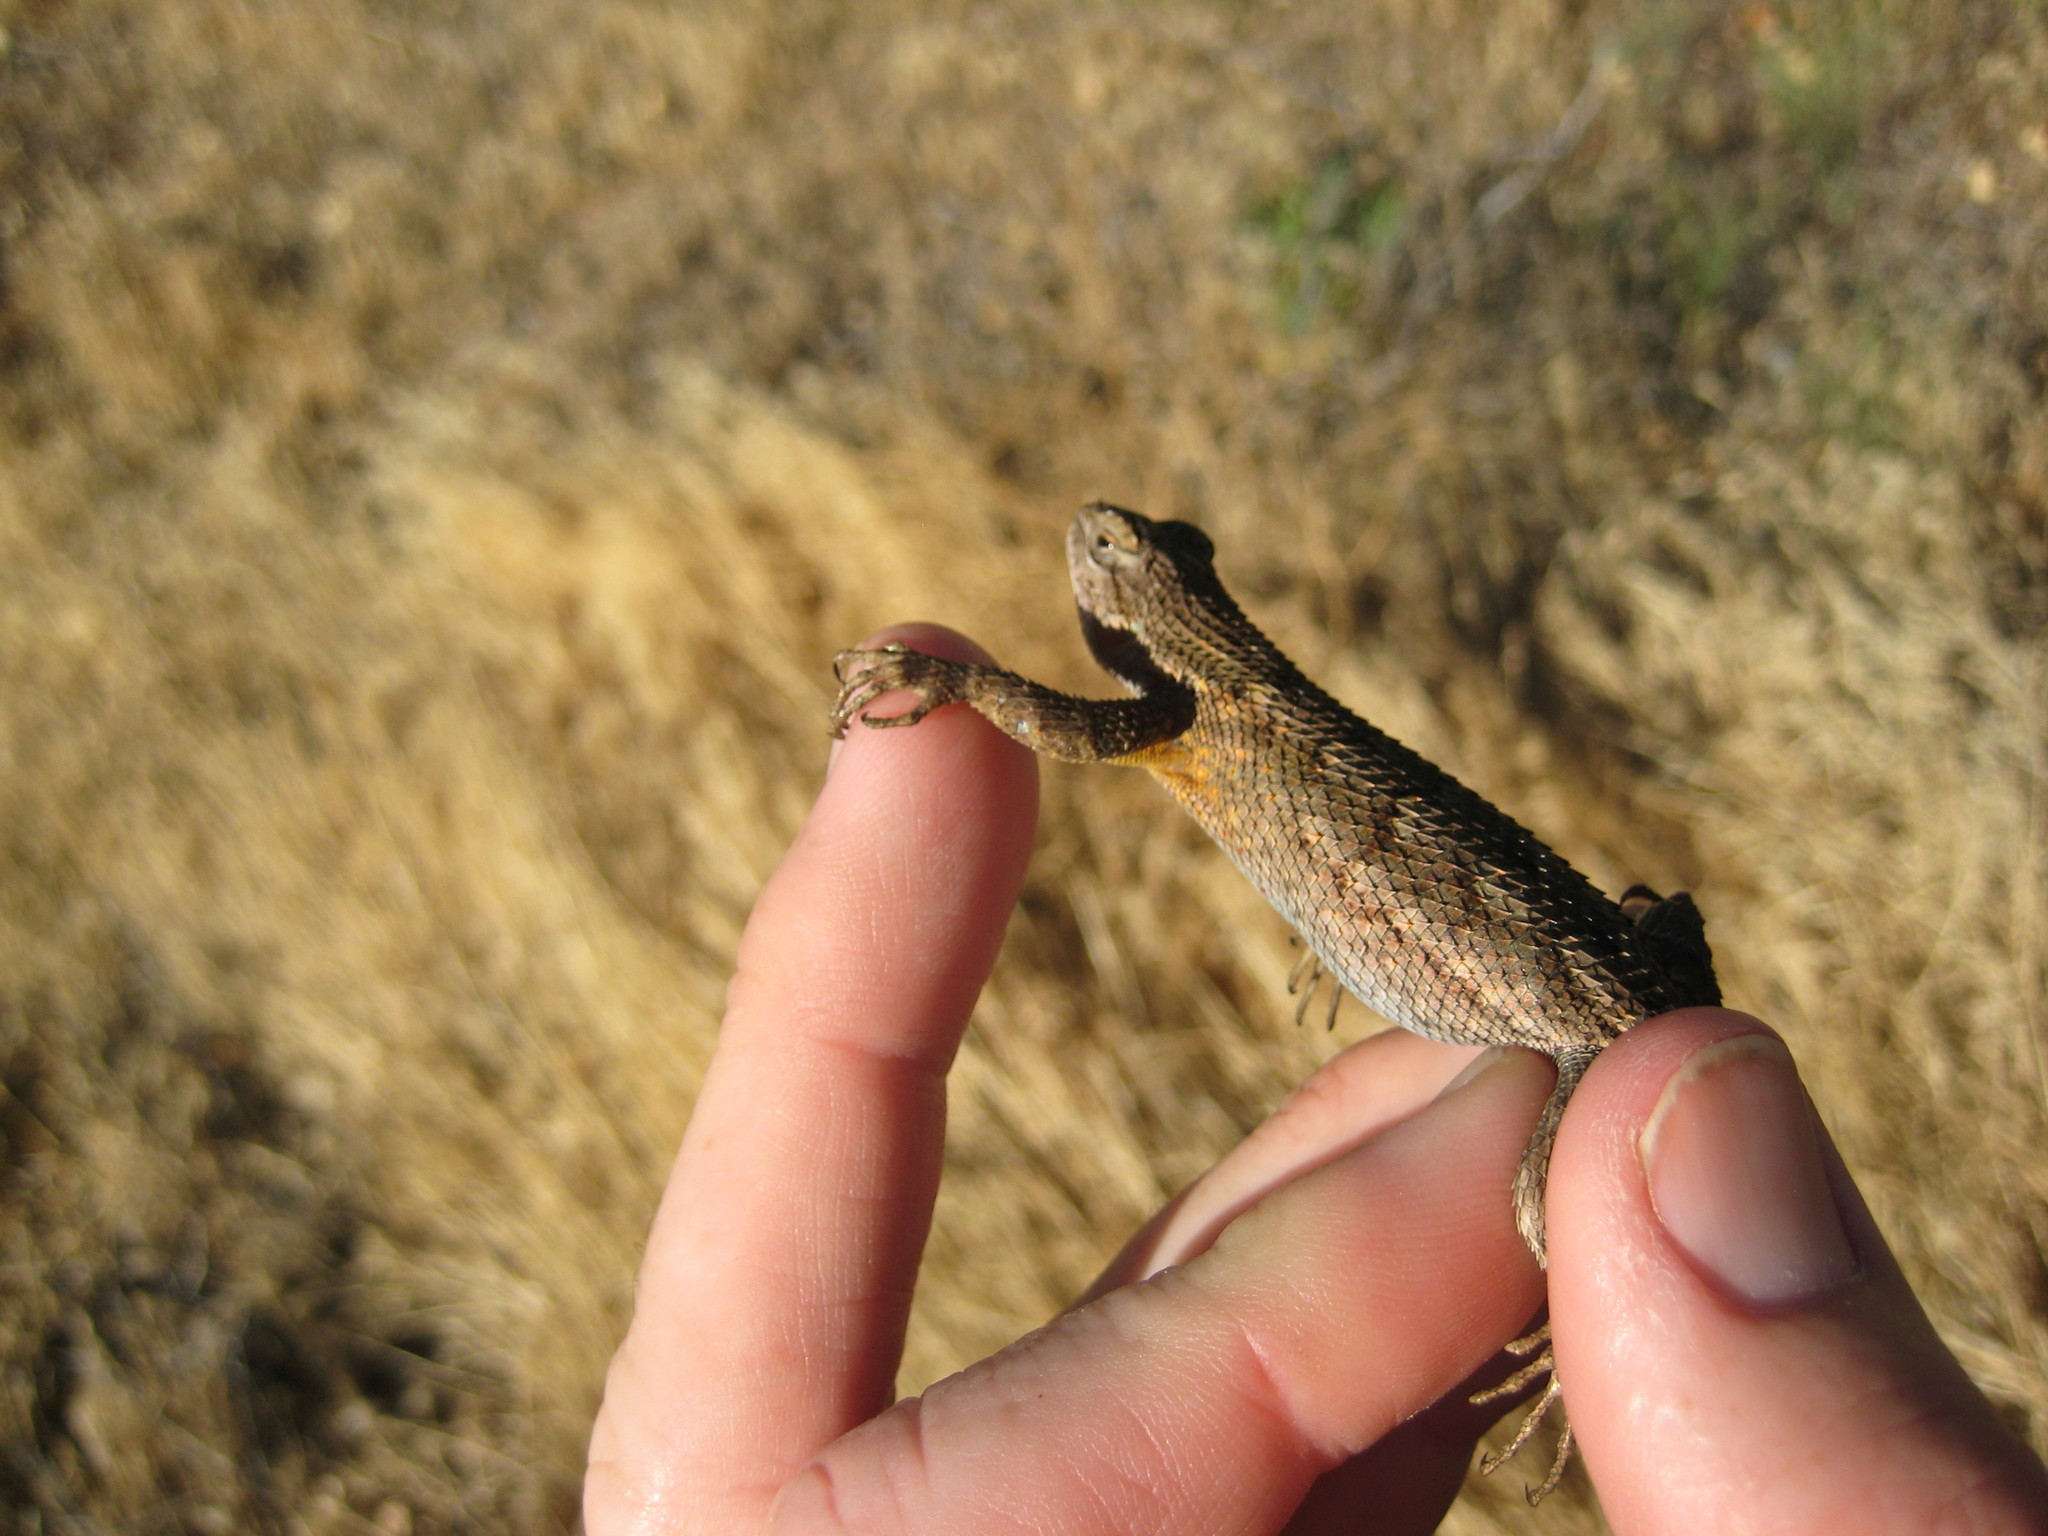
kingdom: Animalia
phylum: Chordata
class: Squamata
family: Phrynosomatidae
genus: Sceloporus
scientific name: Sceloporus occidentalis
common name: Western fence lizard
